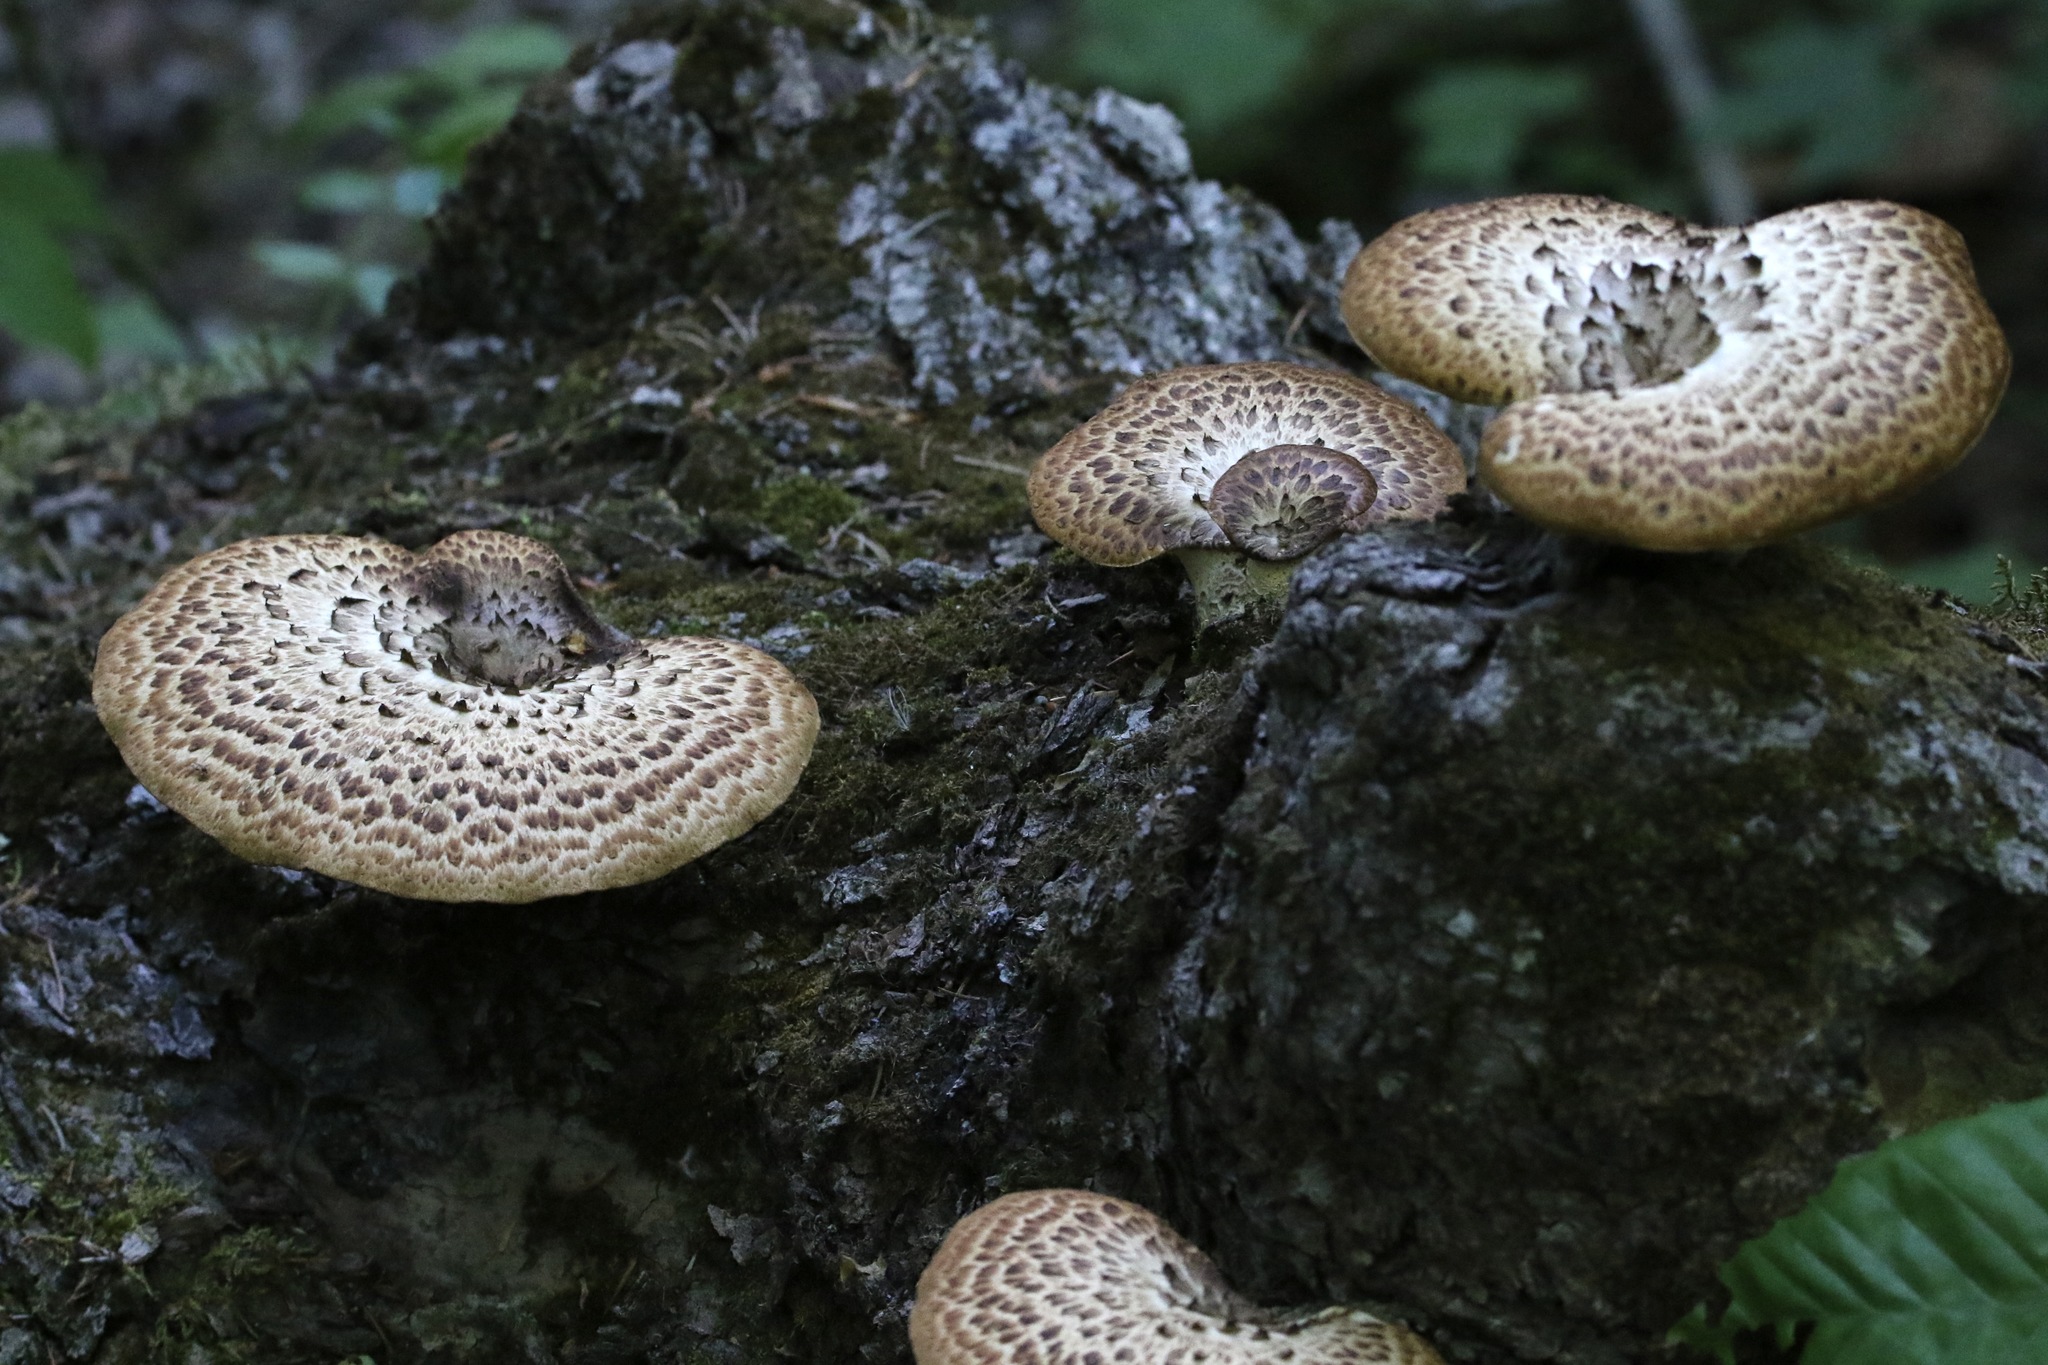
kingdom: Fungi
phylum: Basidiomycota
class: Agaricomycetes
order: Polyporales
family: Polyporaceae
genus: Cerioporus
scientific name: Cerioporus squamosus
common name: Dryad's saddle
